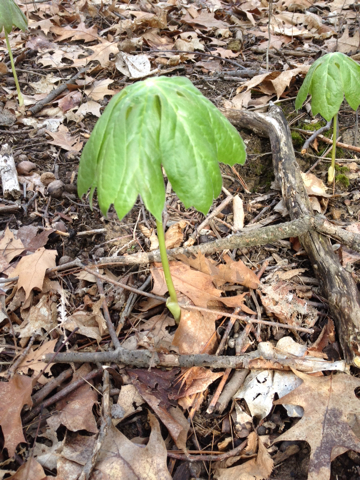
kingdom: Plantae
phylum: Tracheophyta
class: Magnoliopsida
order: Ranunculales
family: Berberidaceae
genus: Podophyllum
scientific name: Podophyllum peltatum
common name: Wild mandrake
